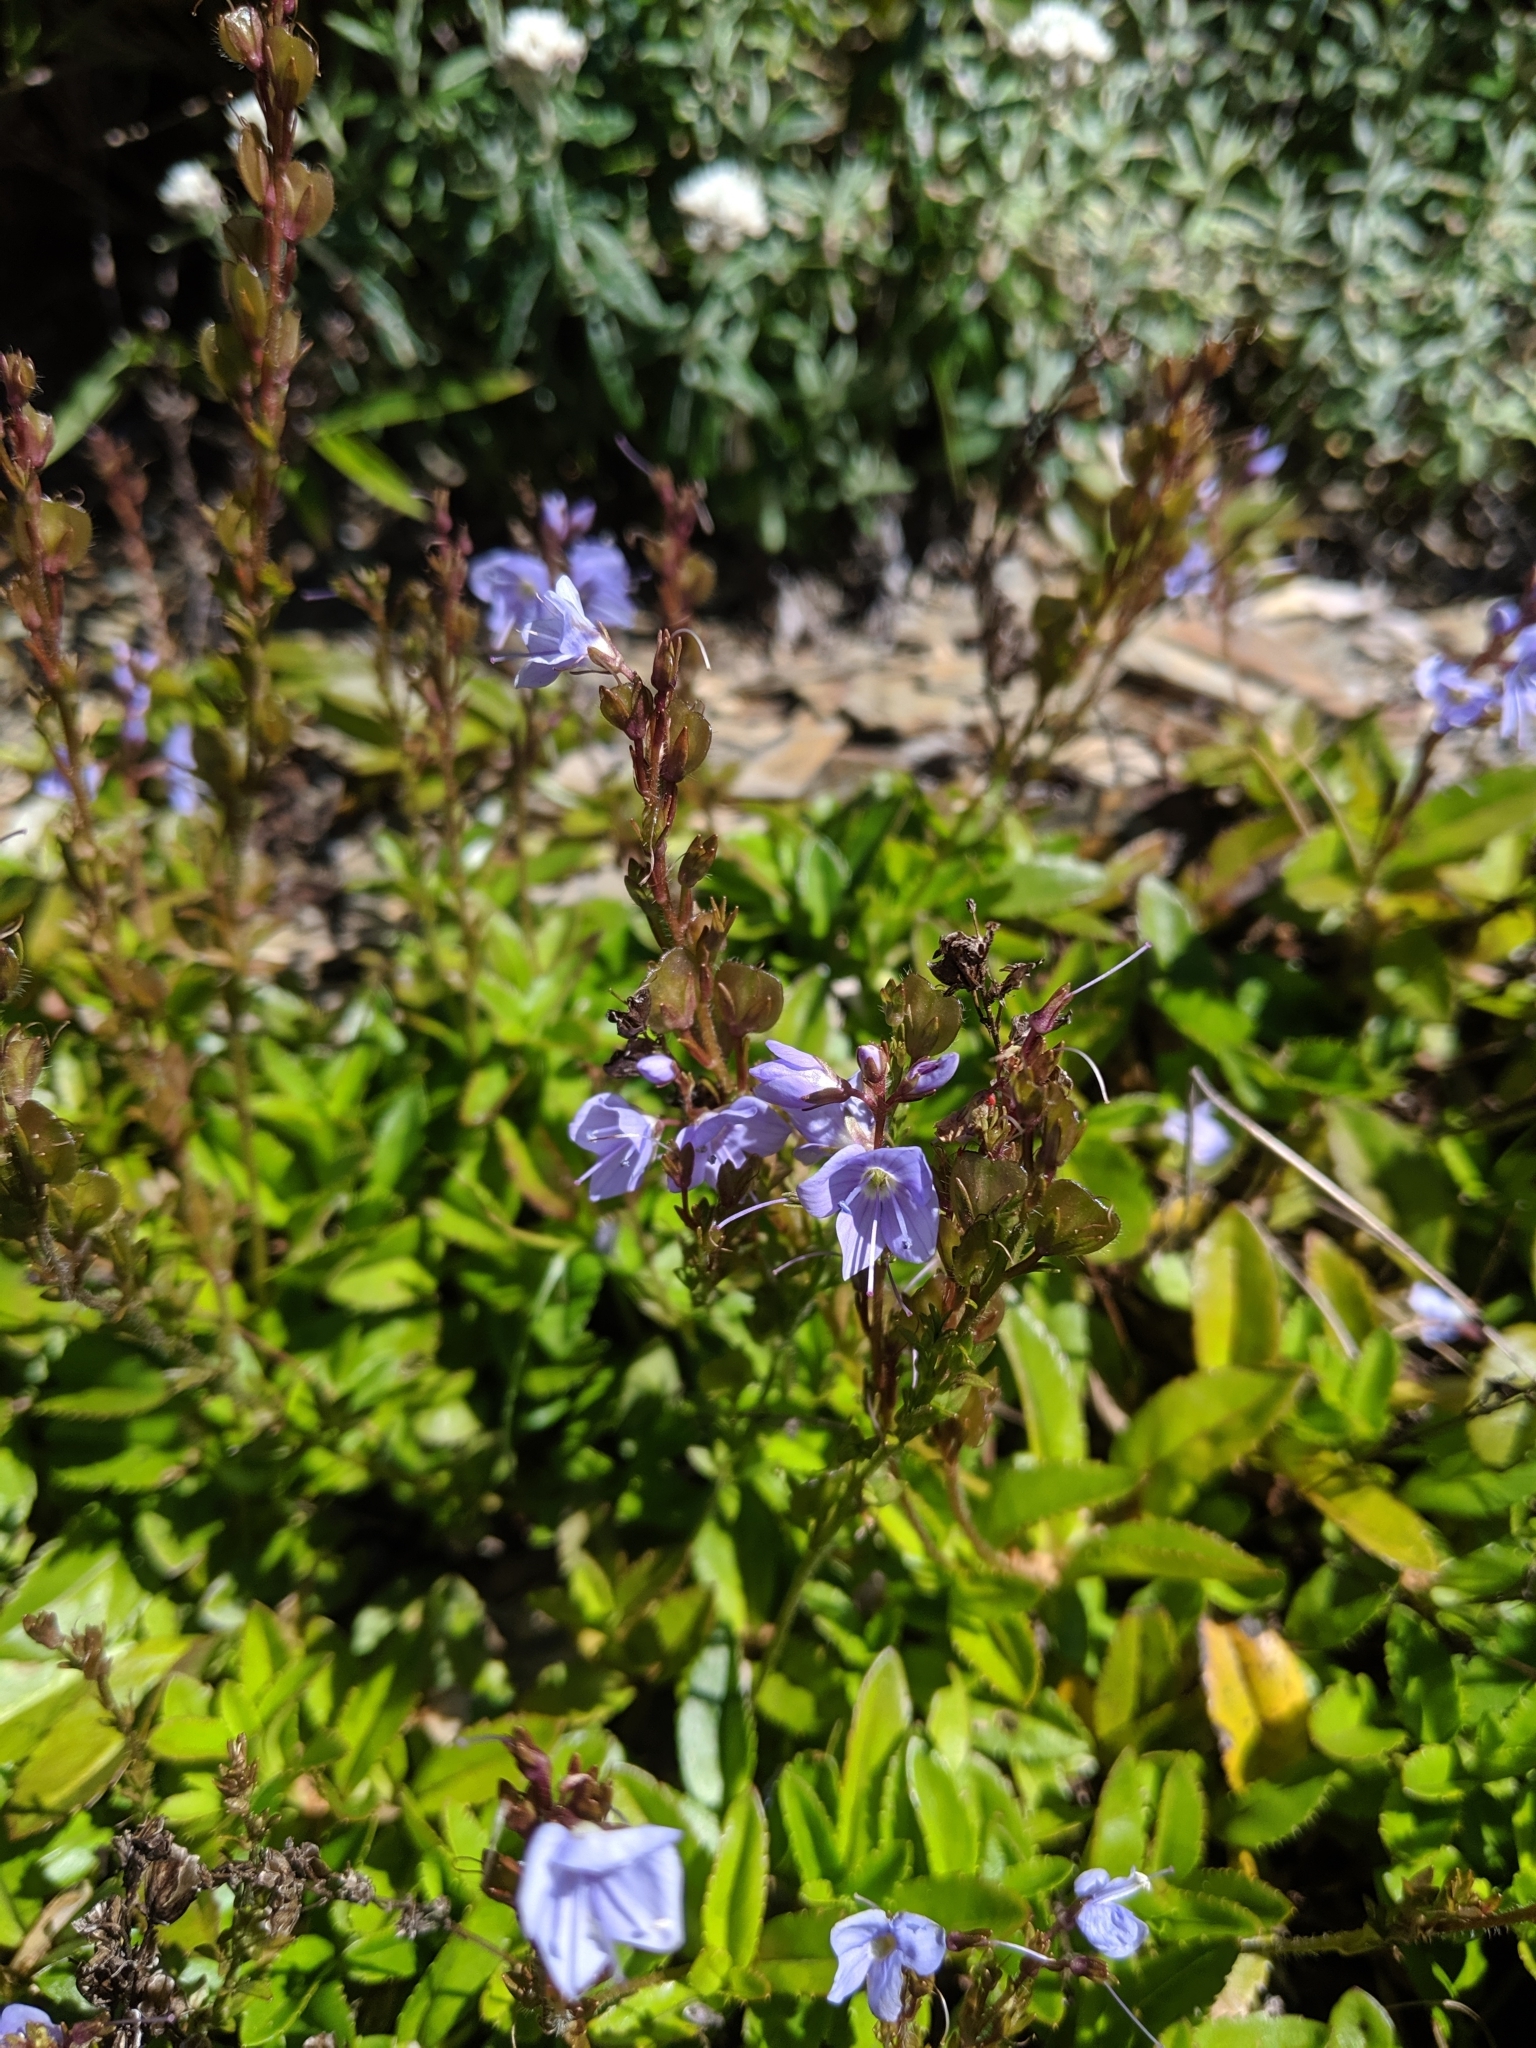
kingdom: Plantae
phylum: Tracheophyta
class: Magnoliopsida
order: Lamiales
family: Plantaginaceae
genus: Veronica
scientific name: Veronica morrisonicola
